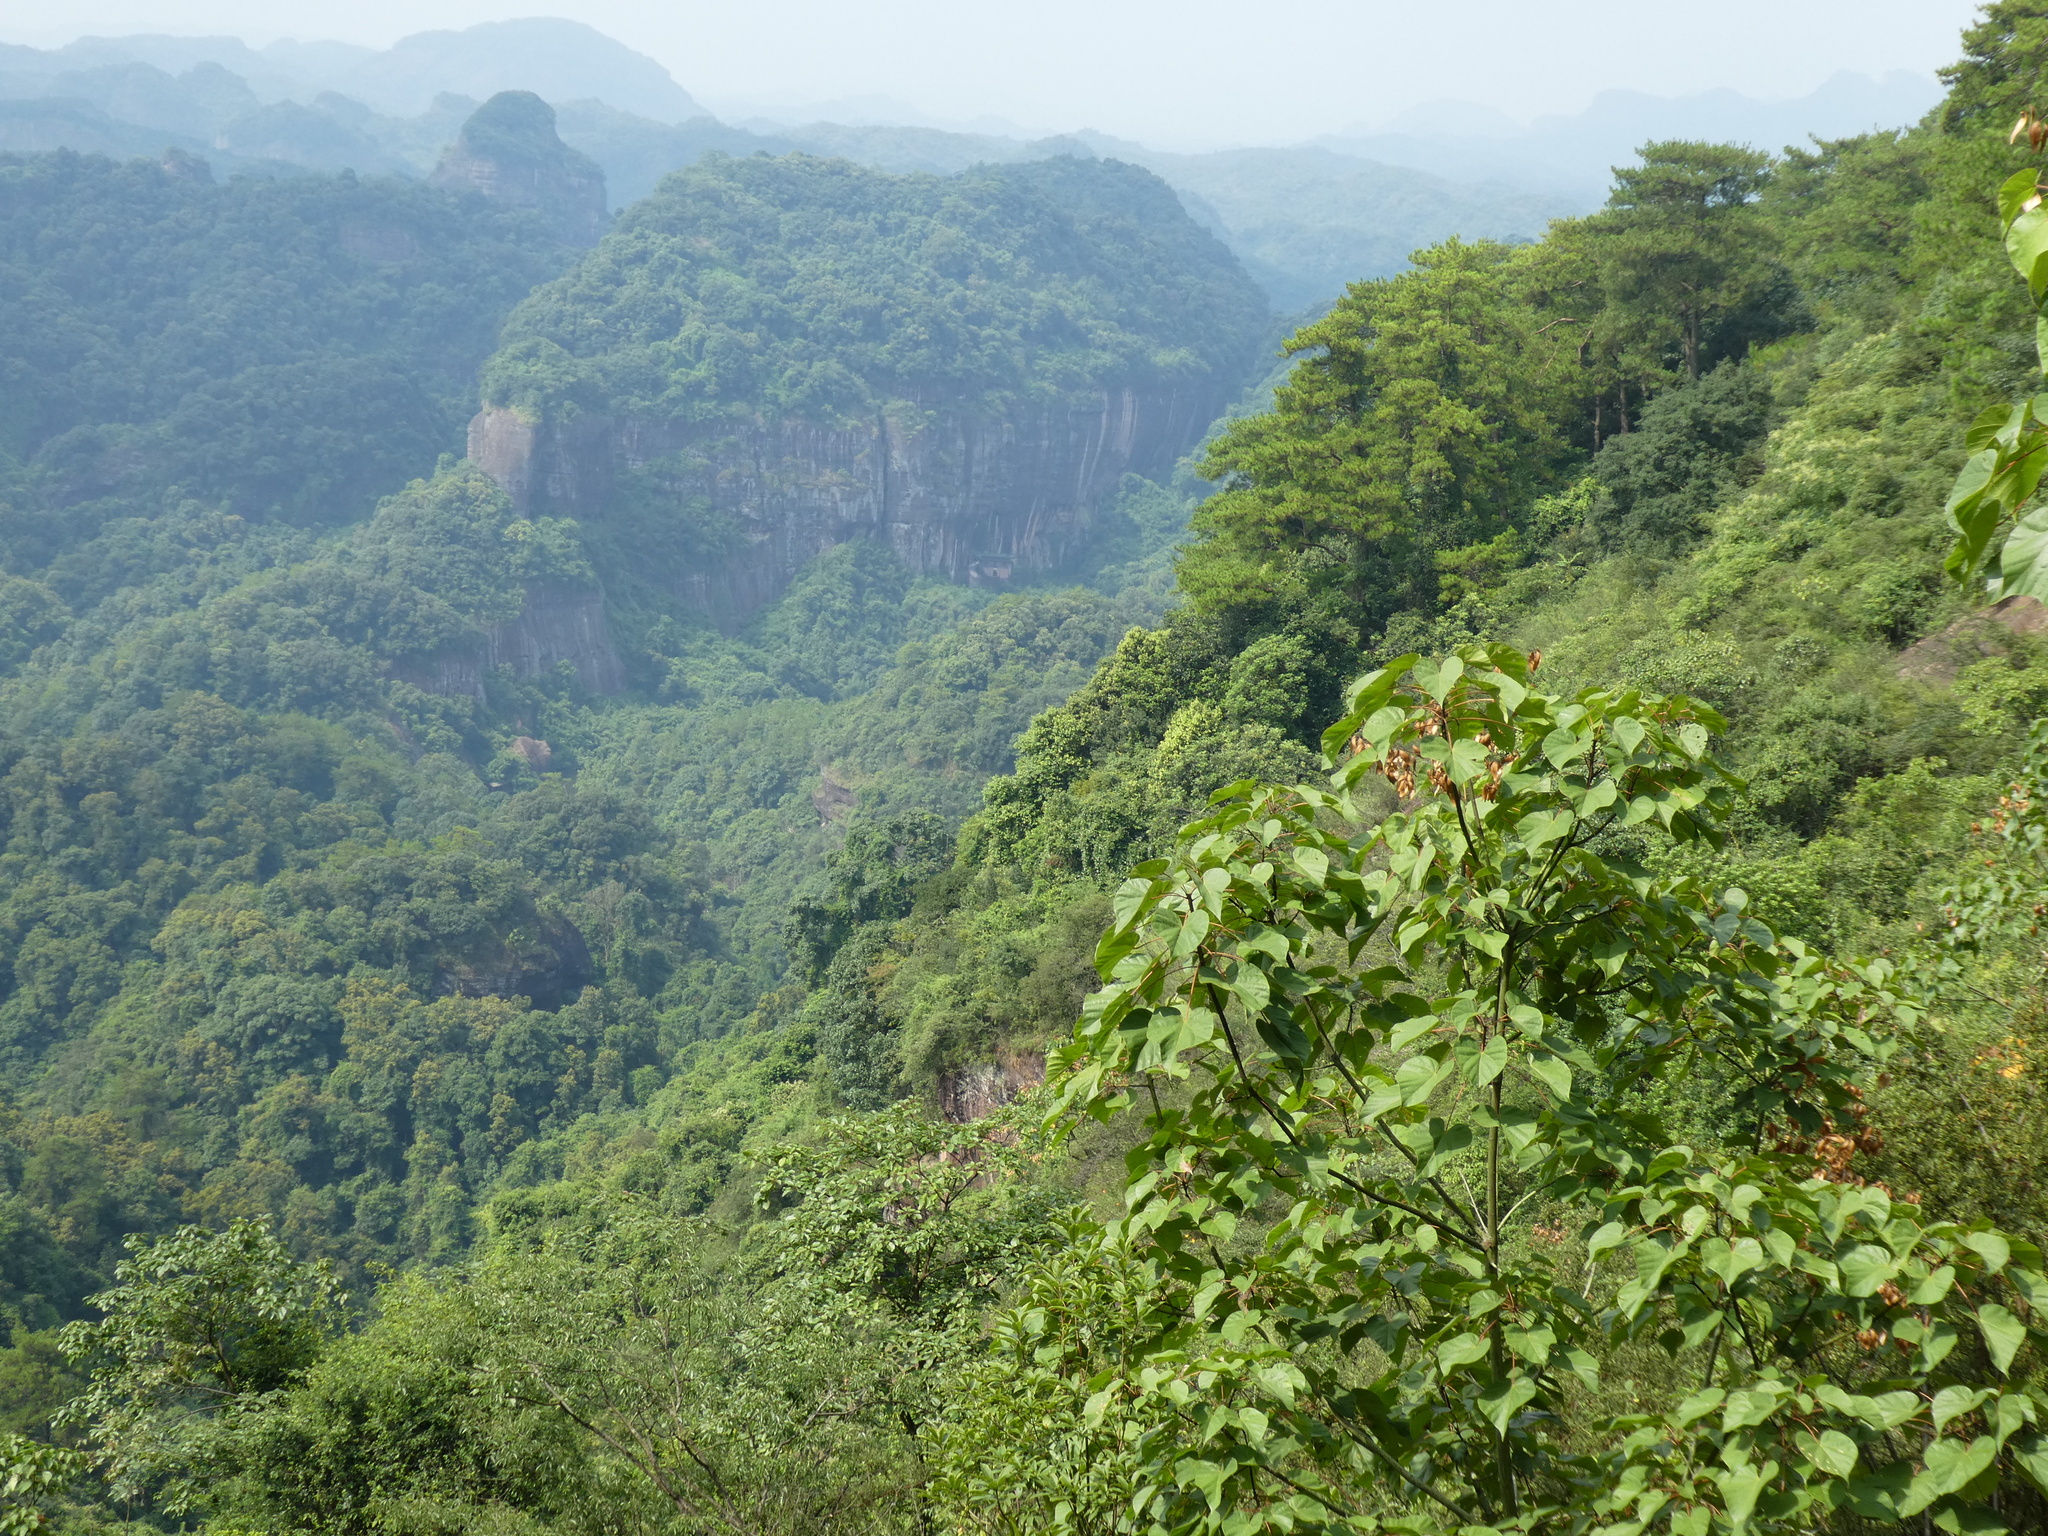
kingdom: Plantae
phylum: Tracheophyta
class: Magnoliopsida
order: Malvales
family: Malvaceae
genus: Firmiana
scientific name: Firmiana danxiaensis
